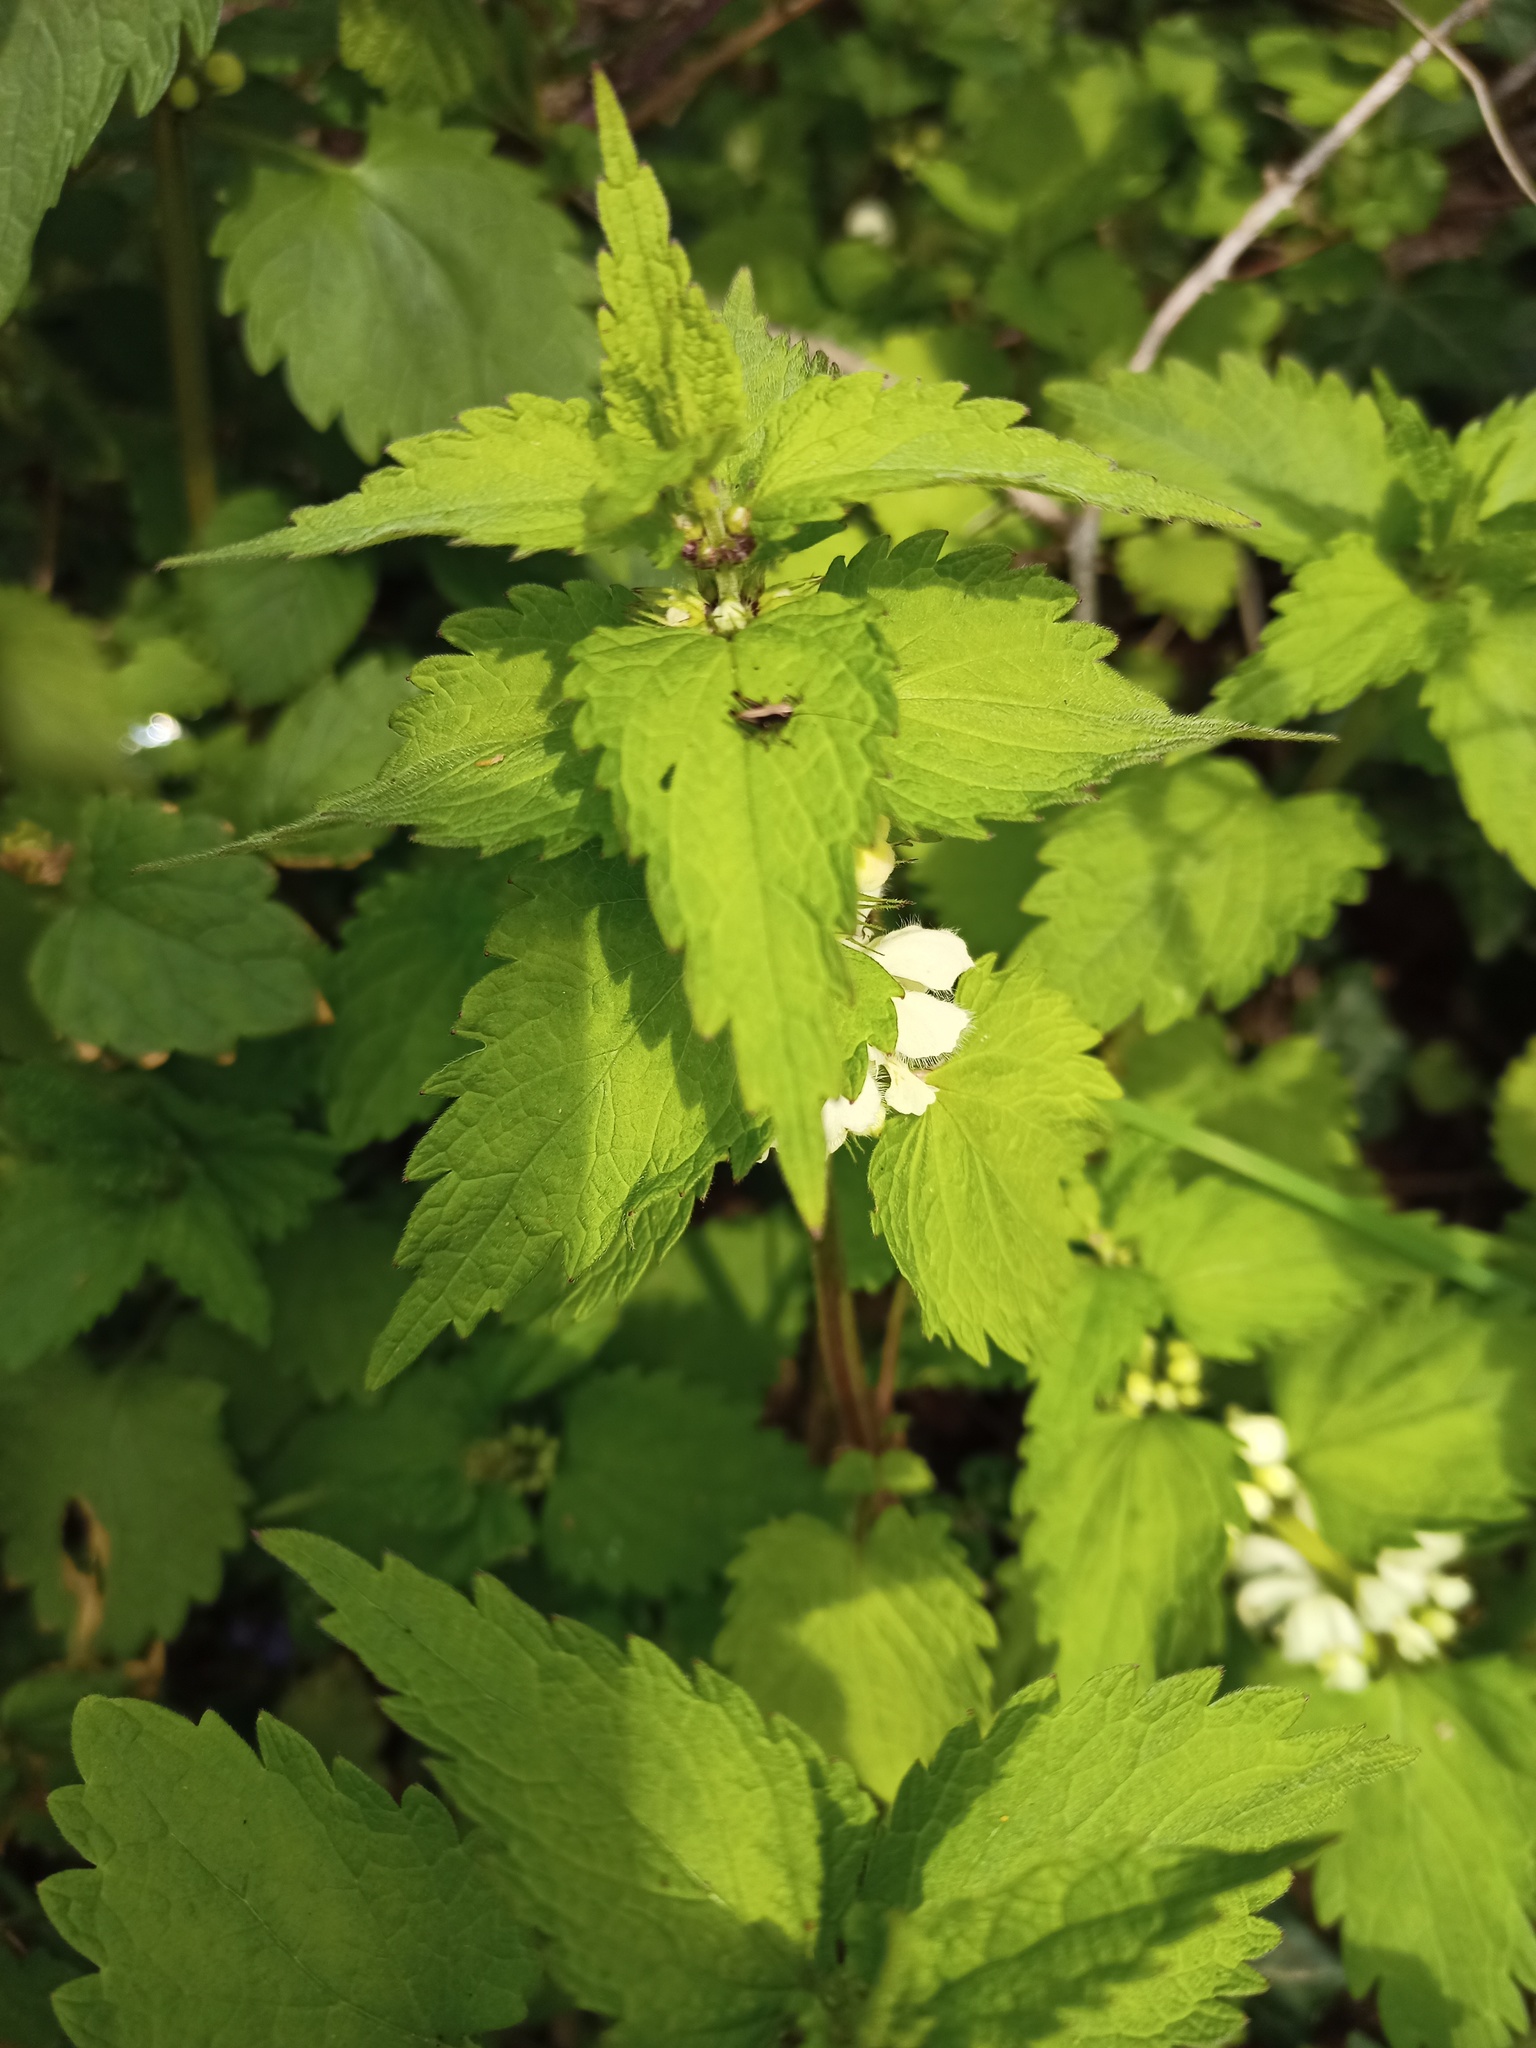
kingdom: Plantae
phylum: Tracheophyta
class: Magnoliopsida
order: Lamiales
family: Lamiaceae
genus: Lamium
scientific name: Lamium album
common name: White dead-nettle
